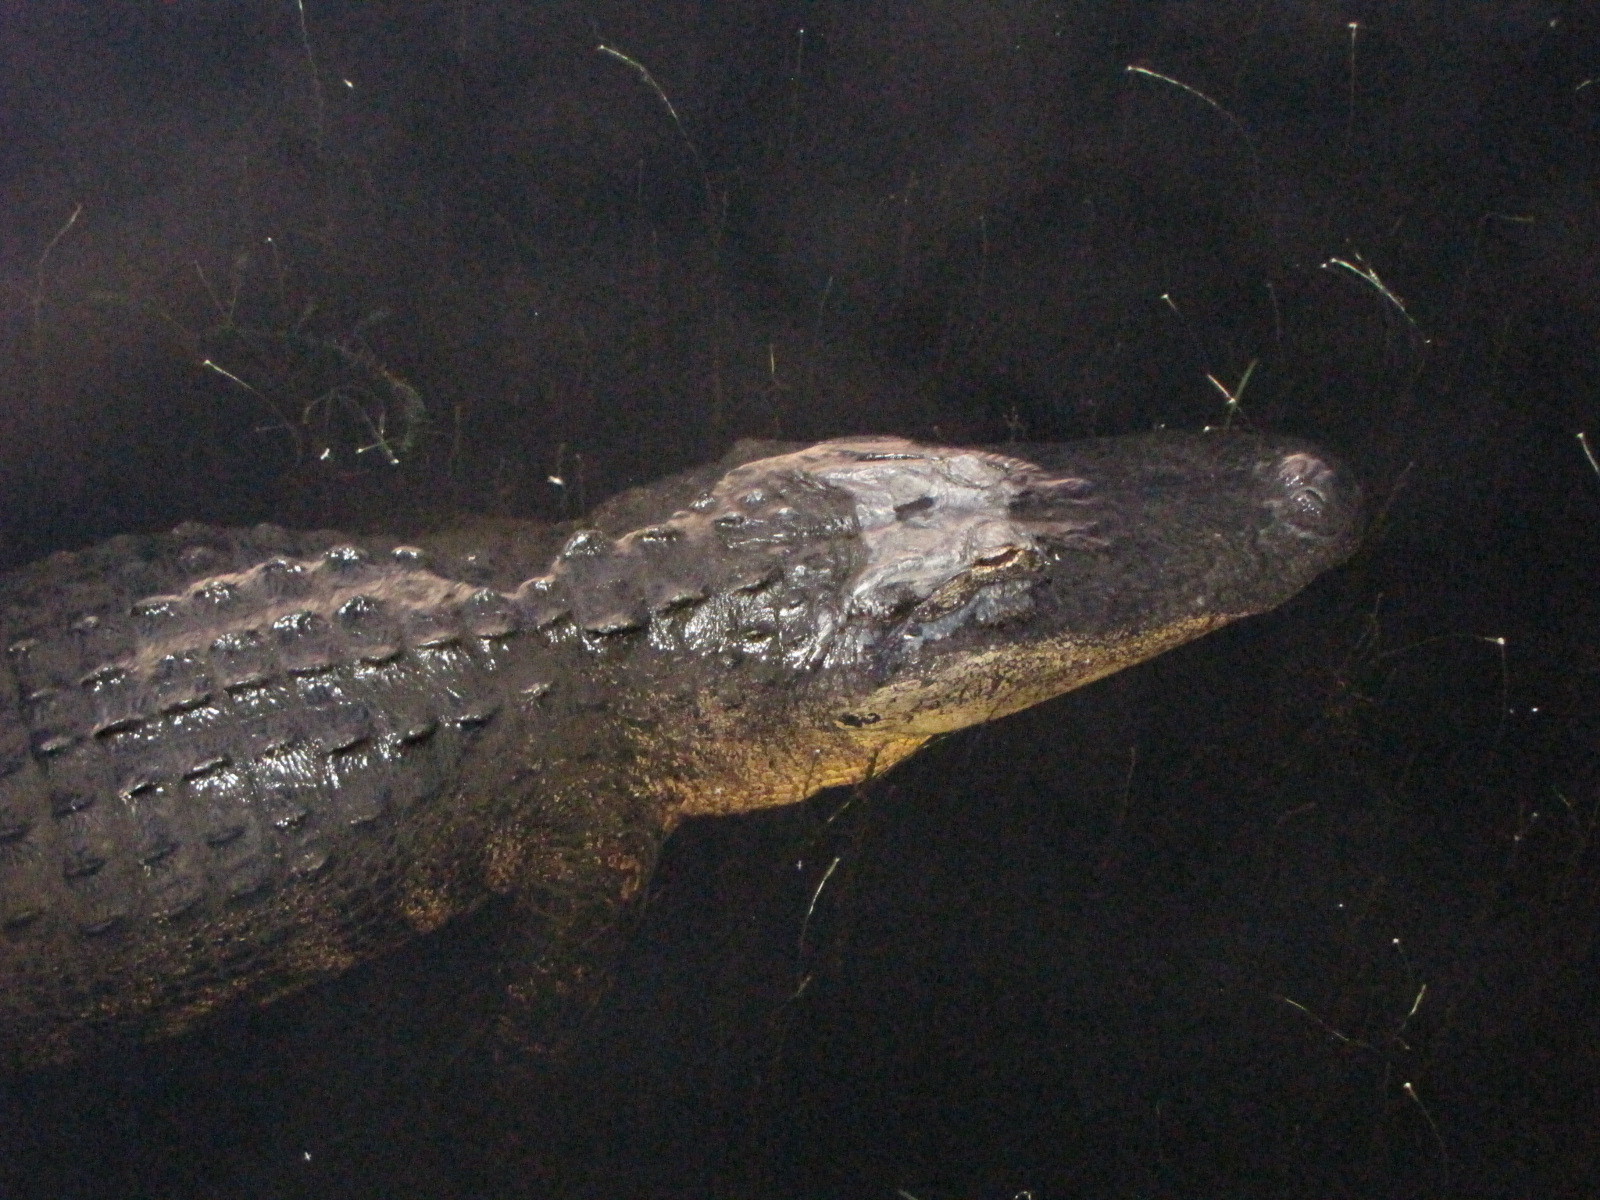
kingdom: Animalia
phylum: Chordata
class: Crocodylia
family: Alligatoridae
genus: Alligator
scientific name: Alligator mississippiensis
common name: American alligator
